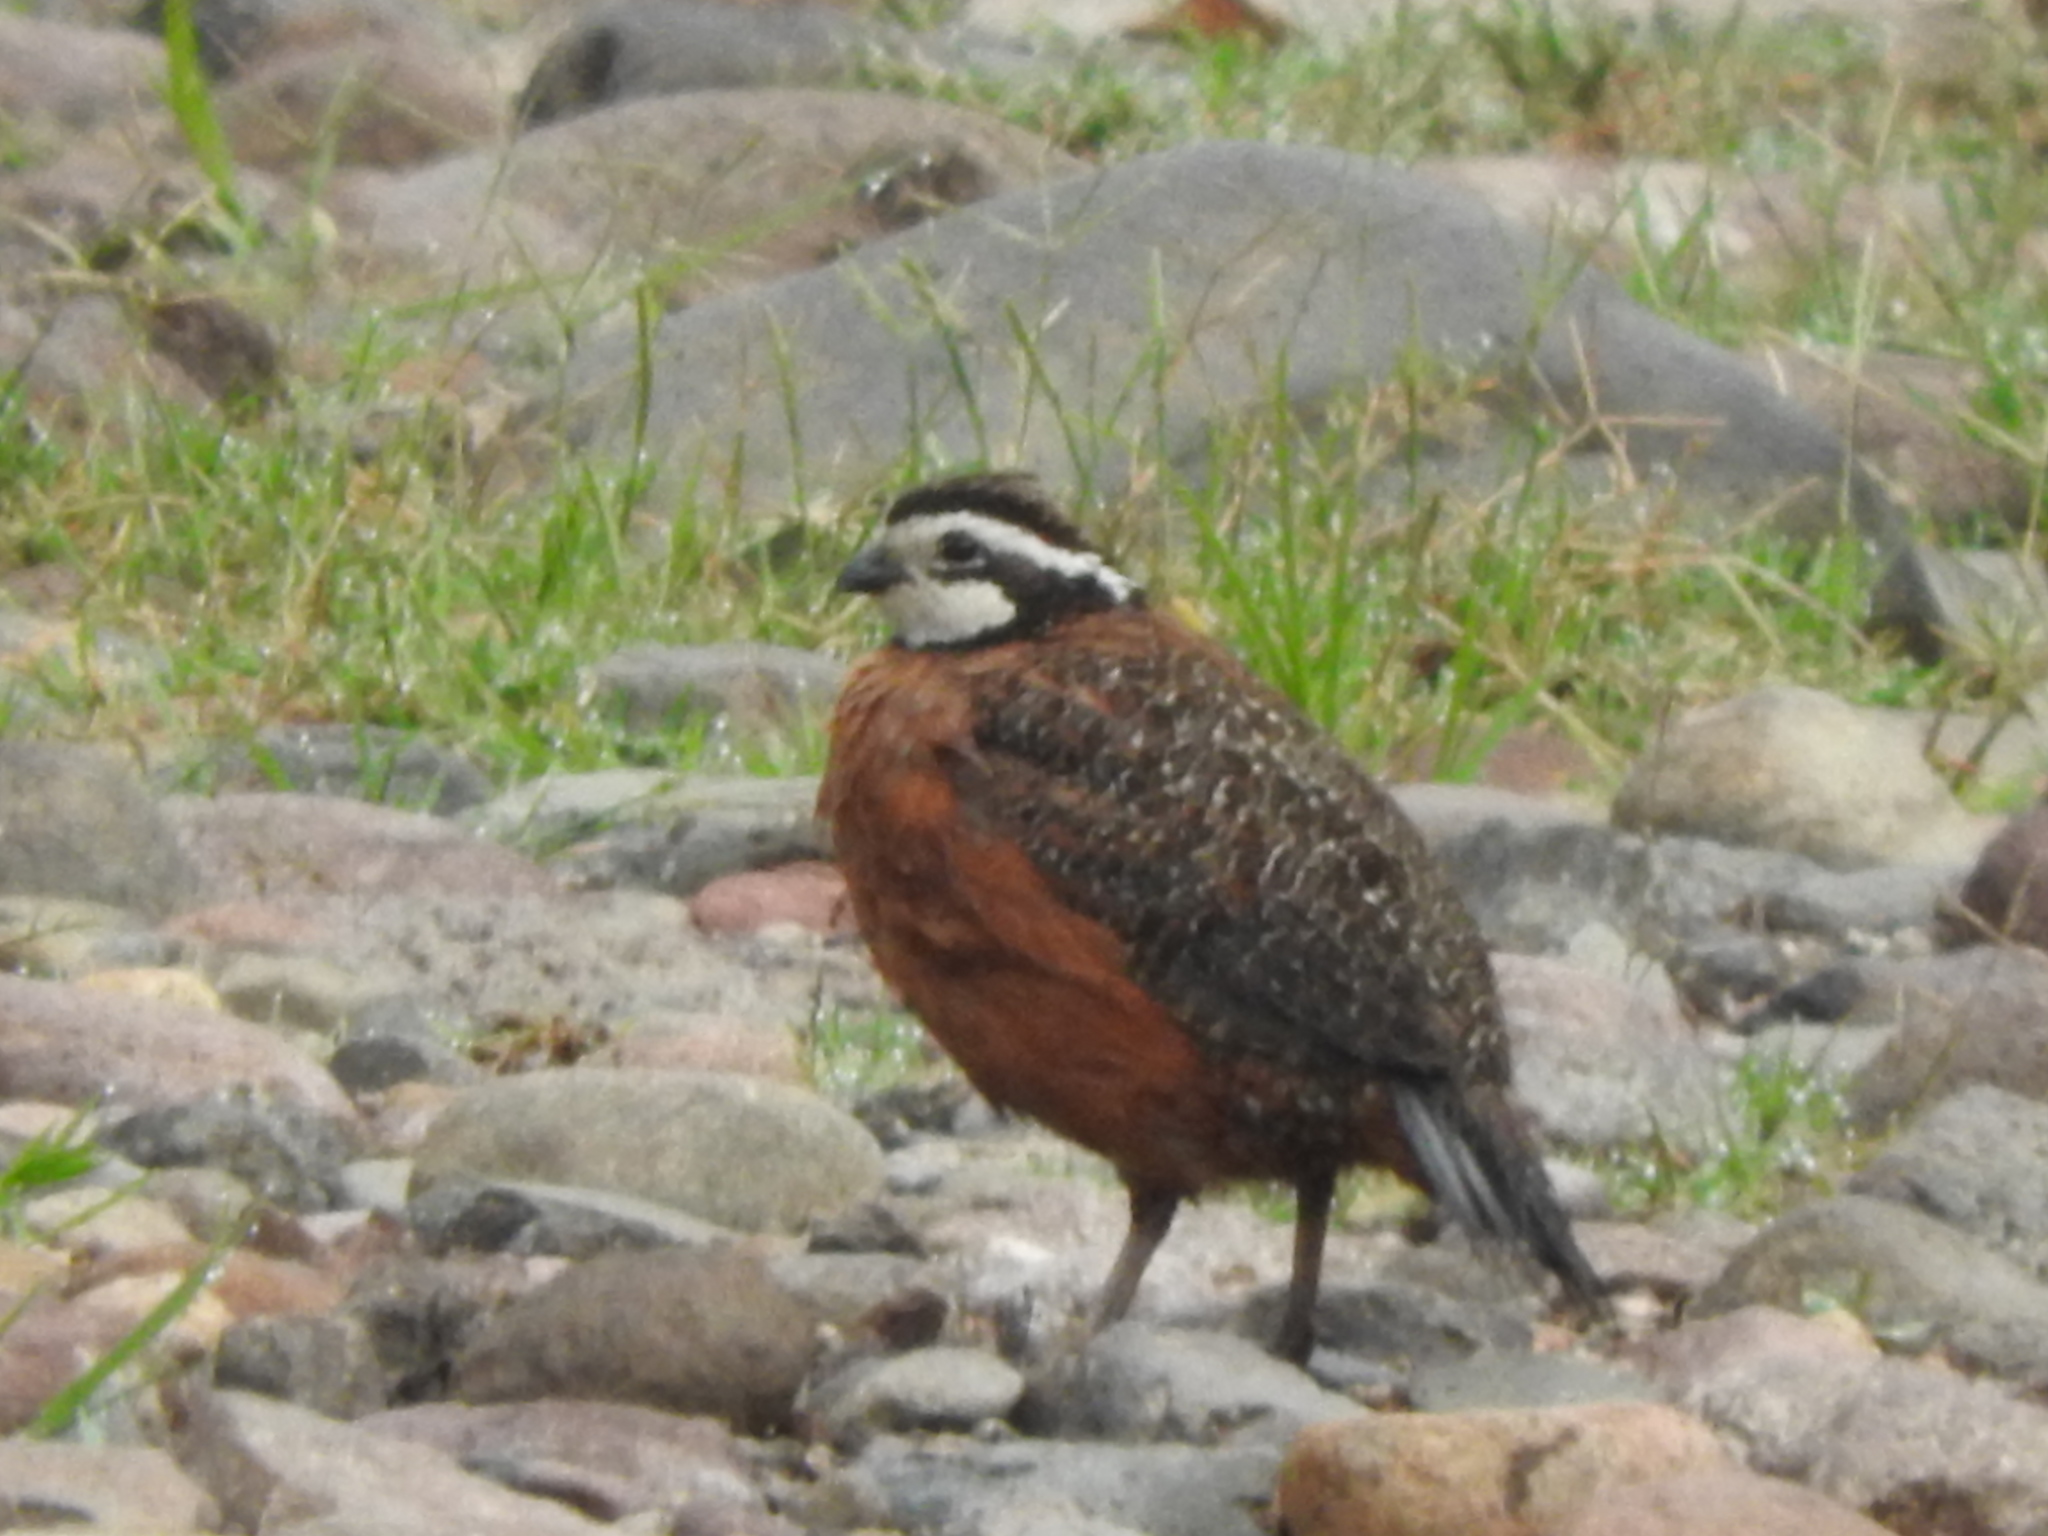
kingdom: Animalia
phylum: Chordata
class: Aves
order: Galliformes
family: Odontophoridae
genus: Colinus
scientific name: Colinus virginianus
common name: Northern bobwhite
